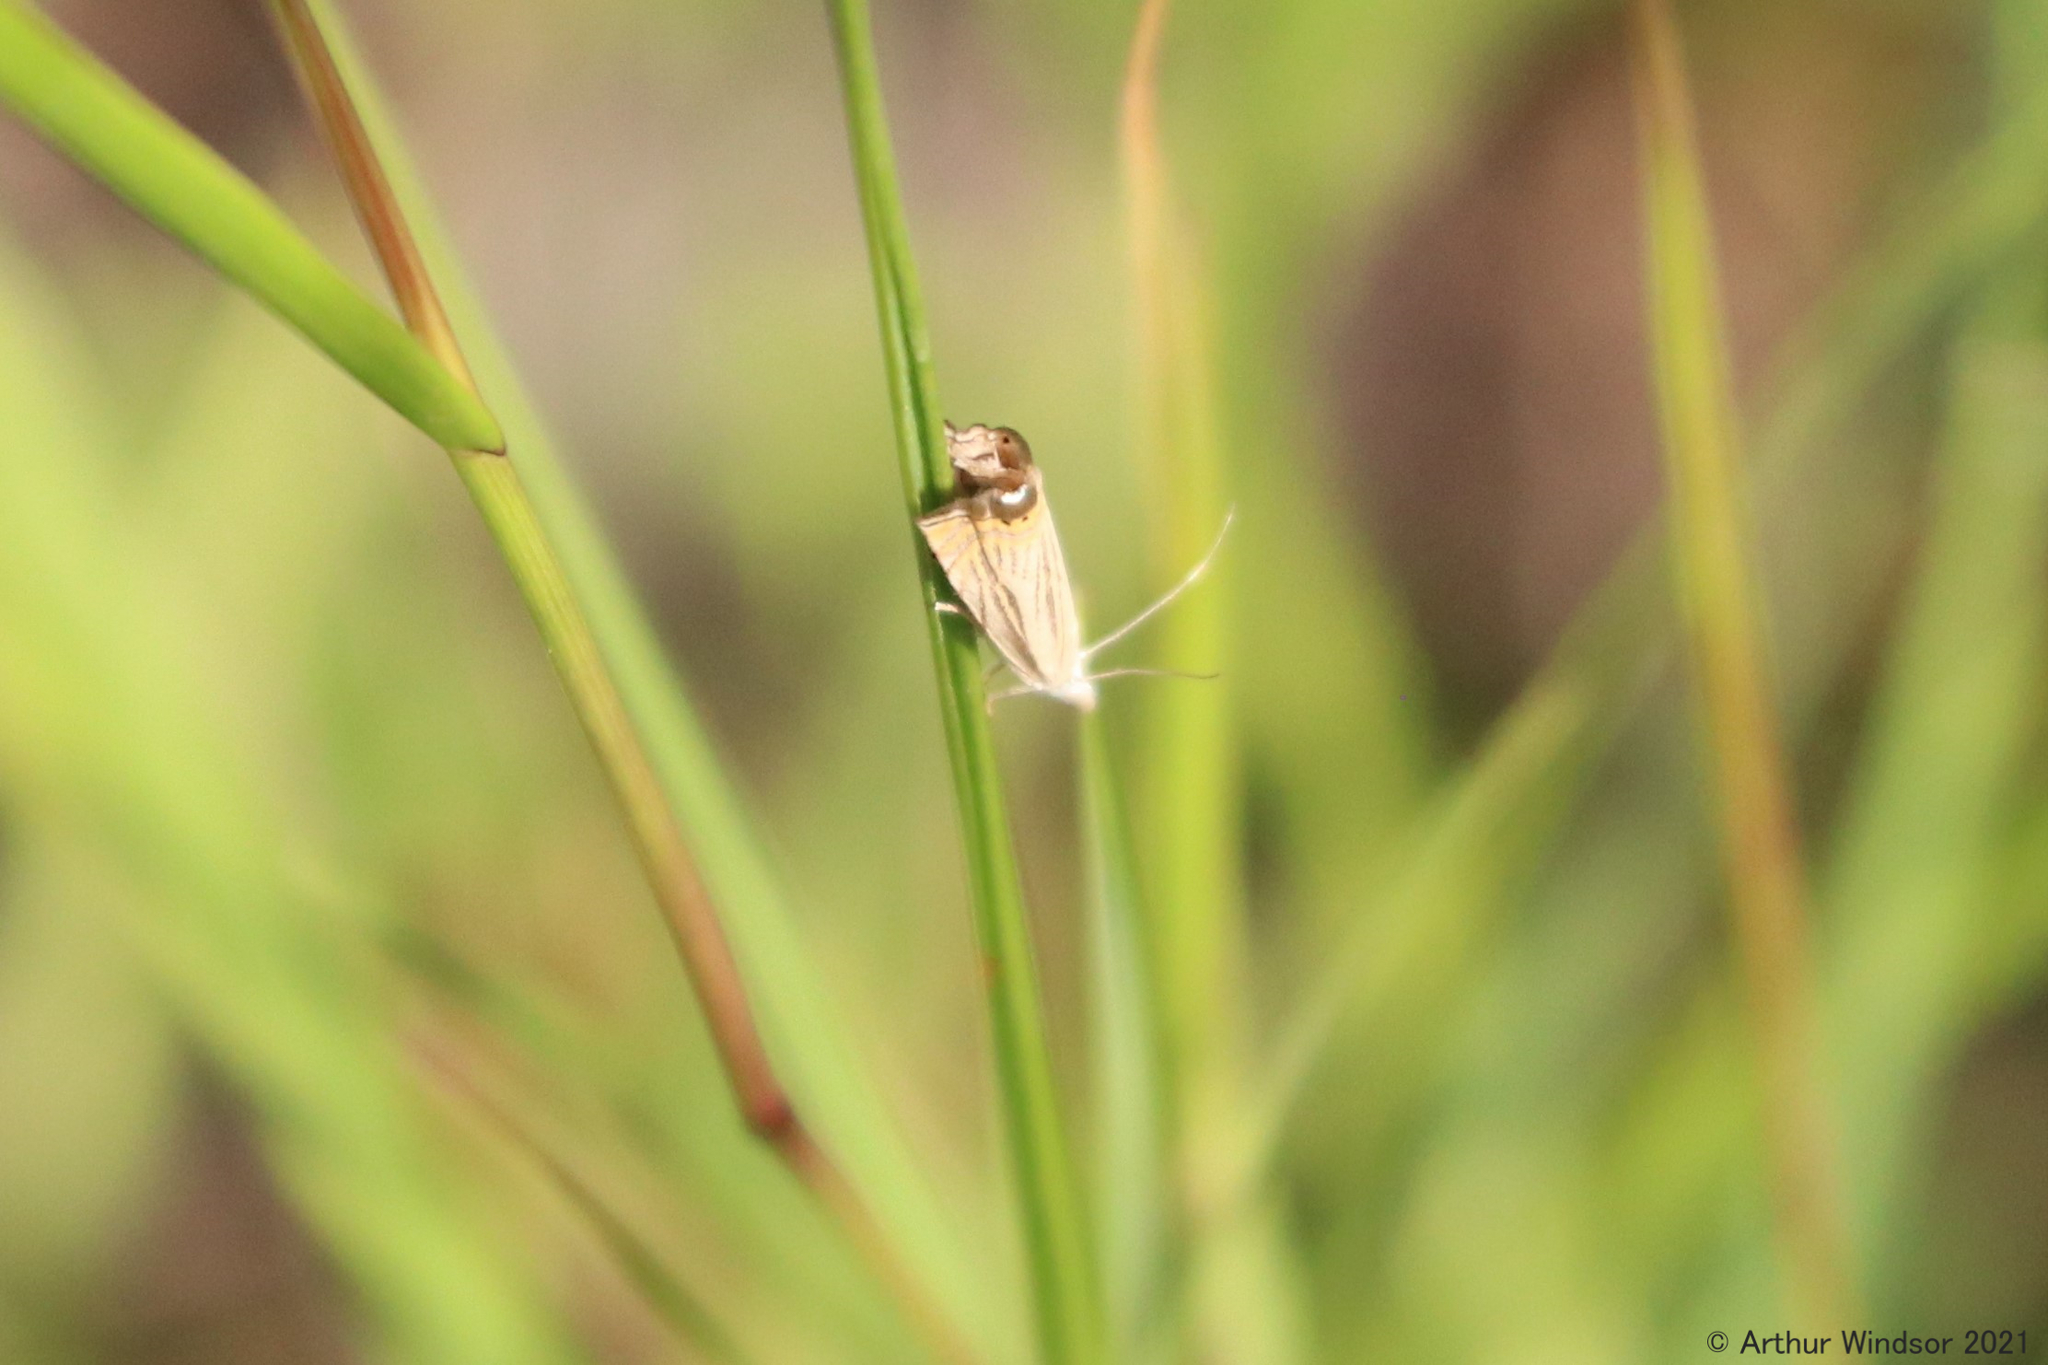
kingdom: Animalia
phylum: Arthropoda
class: Insecta
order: Lepidoptera
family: Crambidae
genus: Chrysoteuchia
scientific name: Chrysoteuchia topiarius
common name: Topiary grass-veneer
